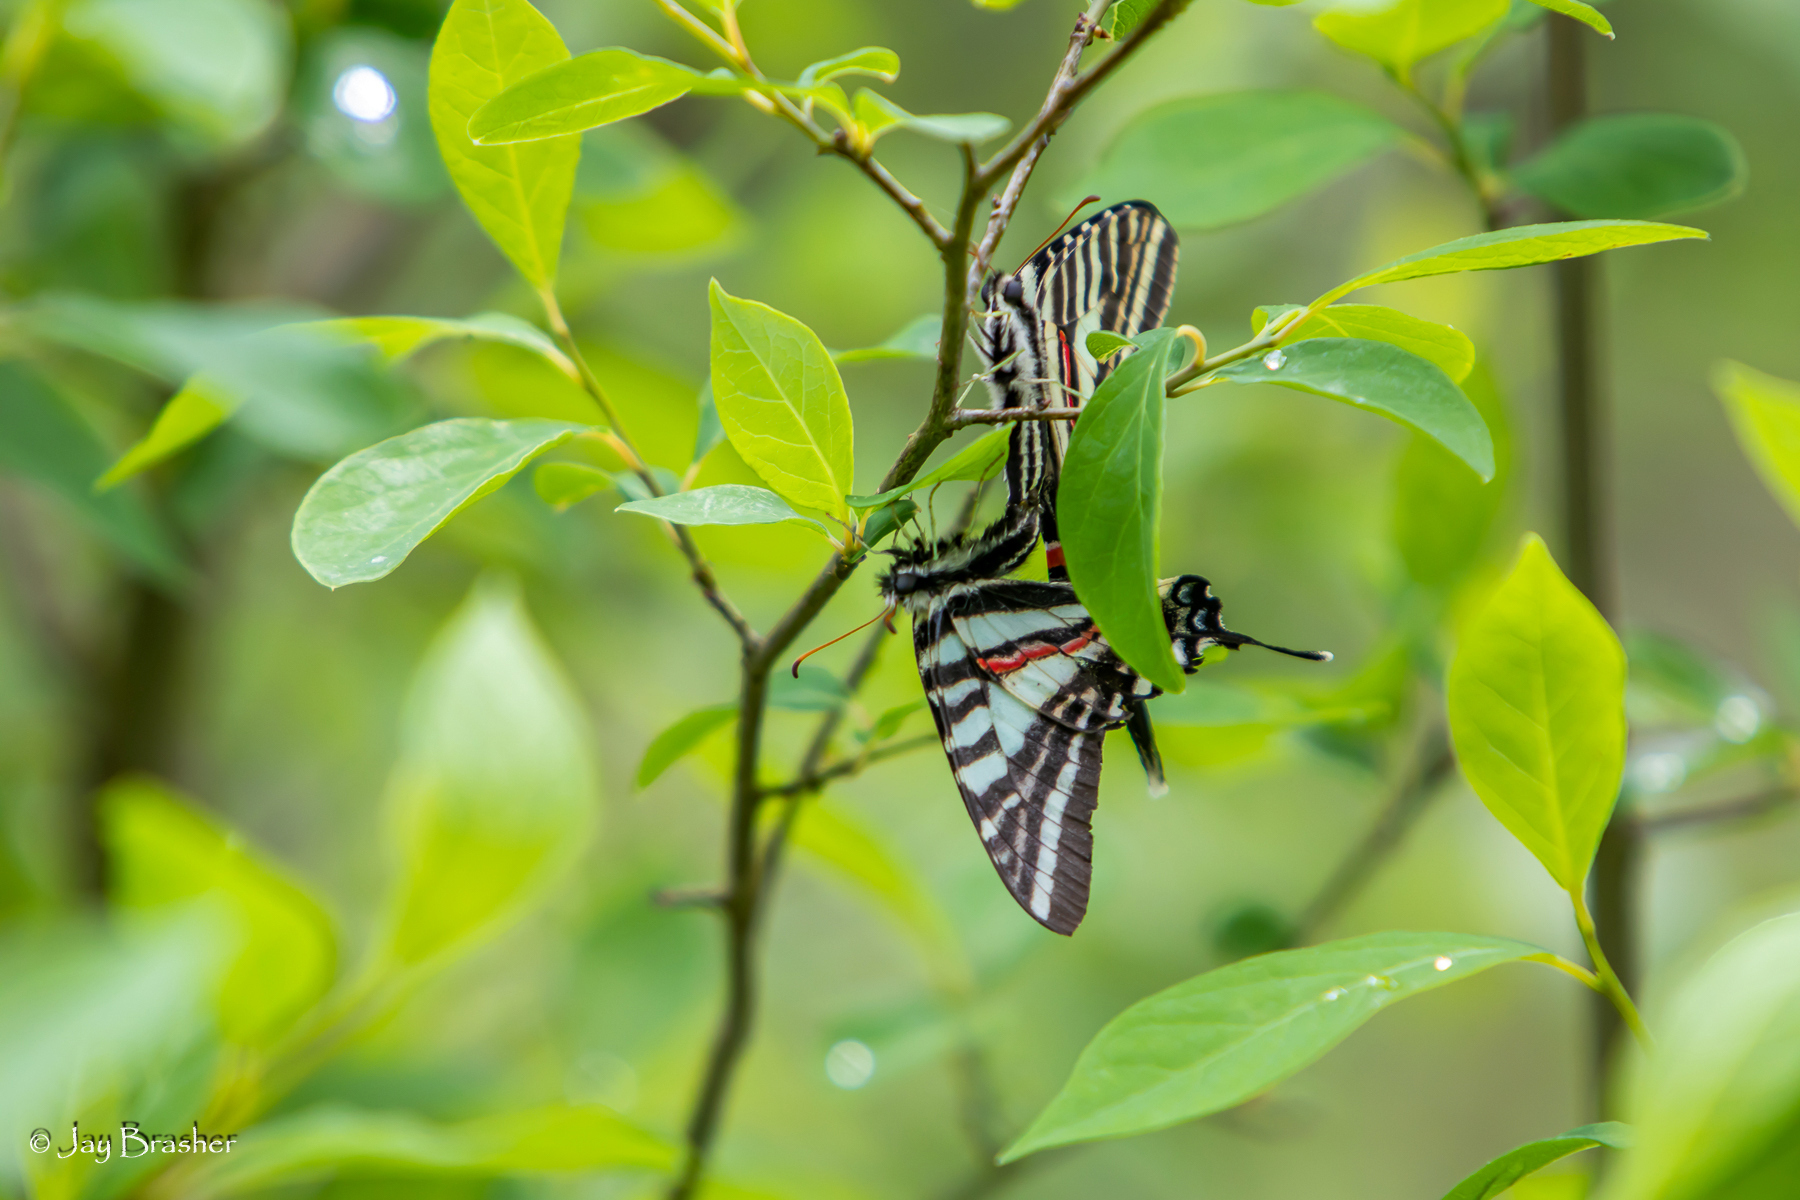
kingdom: Animalia
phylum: Arthropoda
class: Insecta
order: Lepidoptera
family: Papilionidae
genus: Protographium
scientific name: Protographium marcellus
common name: Zebra swallowtail
